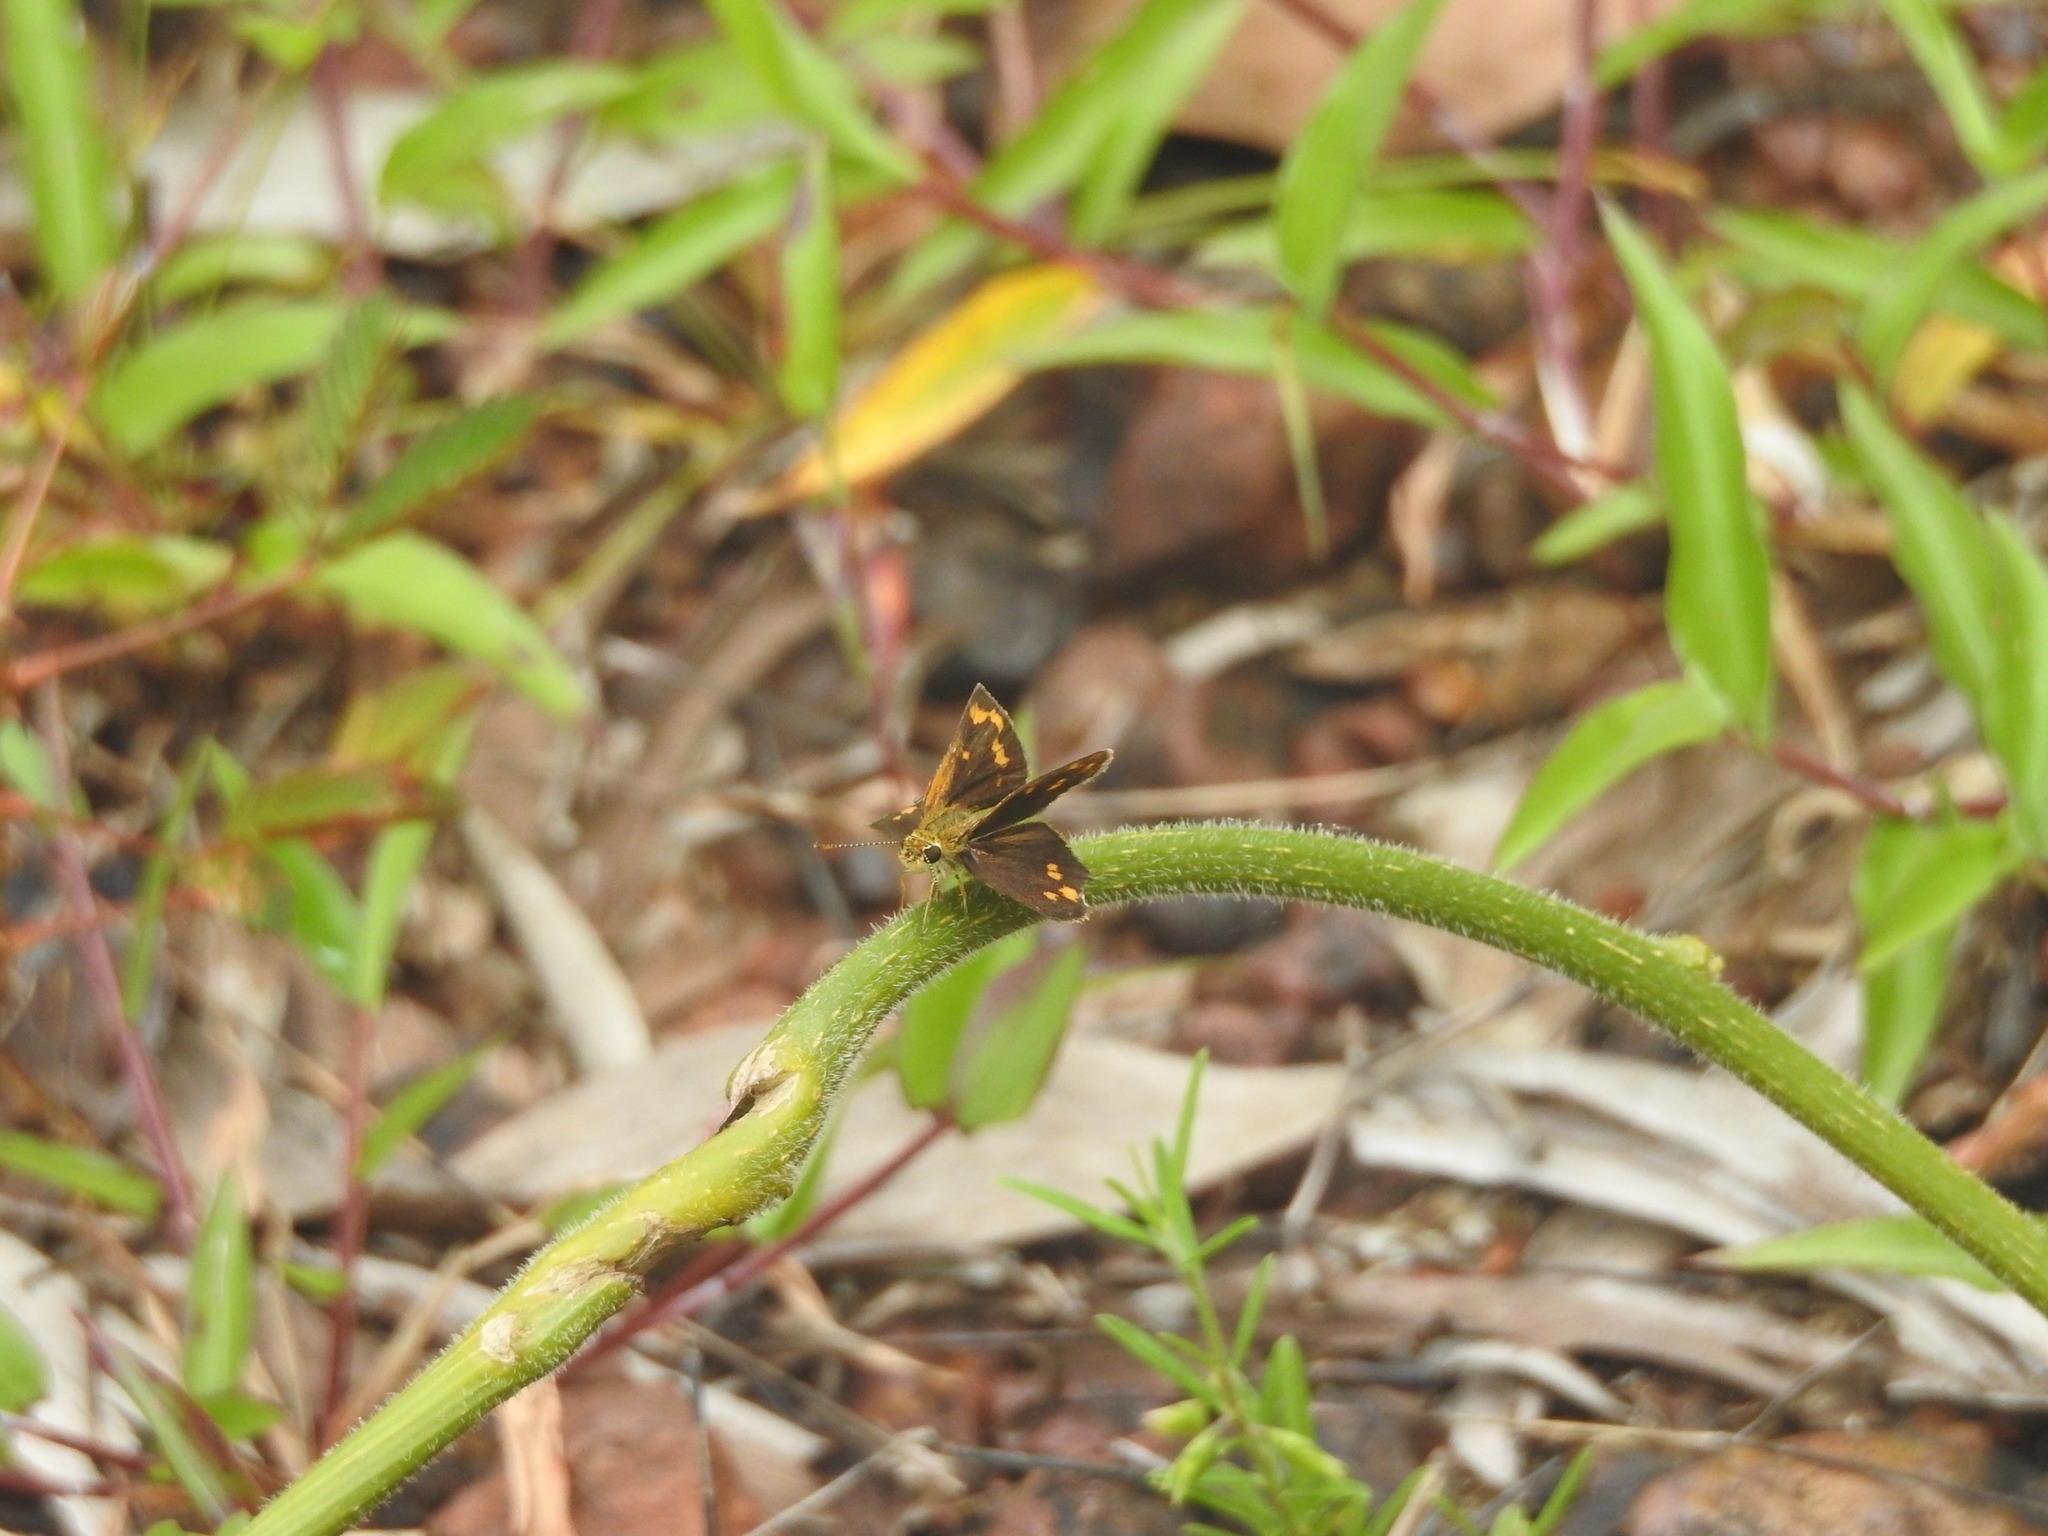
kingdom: Animalia
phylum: Arthropoda
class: Insecta
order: Lepidoptera
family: Hesperiidae
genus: Taractrocera
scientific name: Taractrocera ceramas
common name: Tamil grass dart
